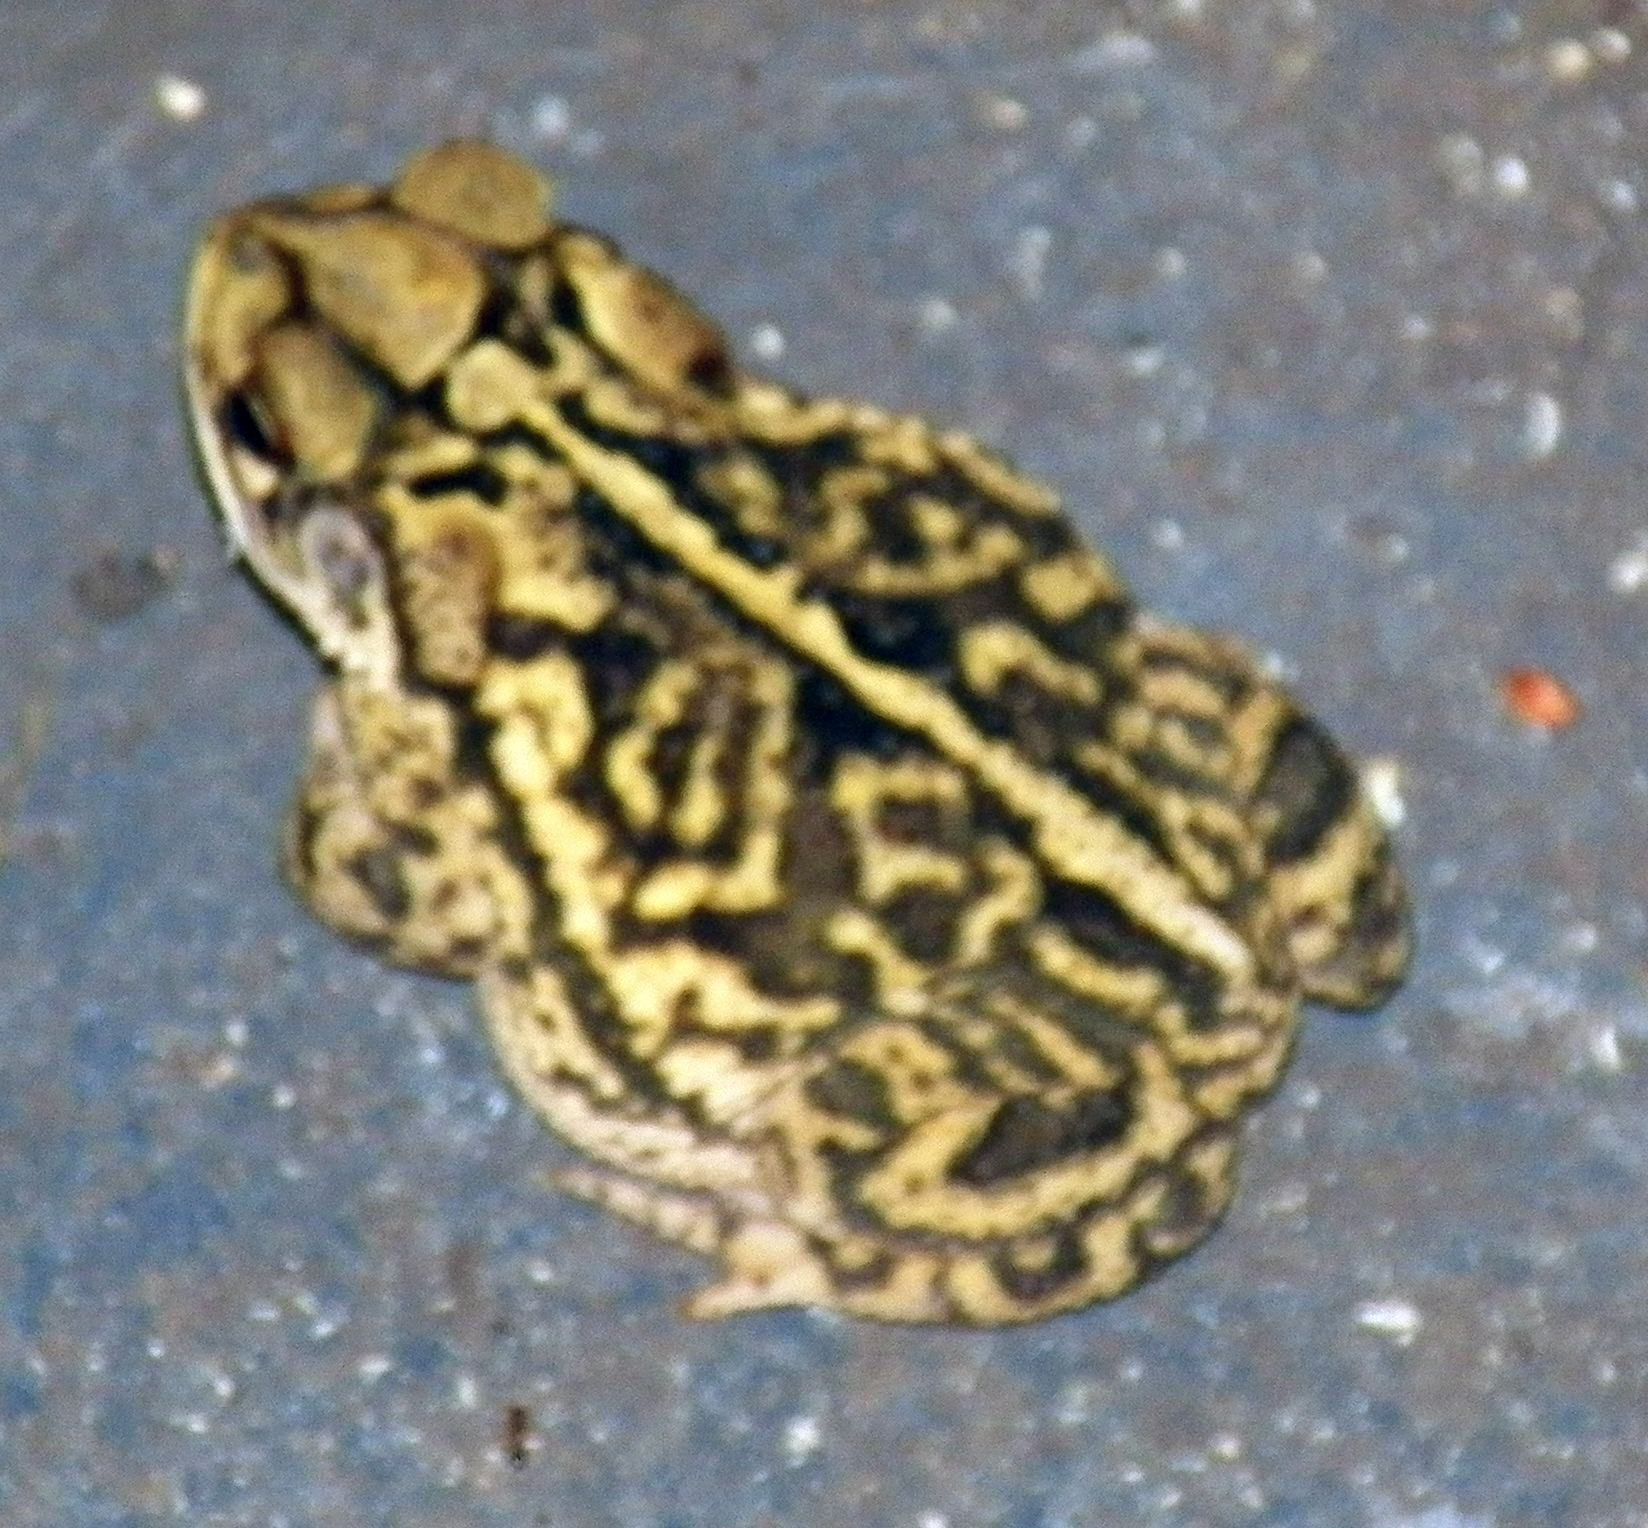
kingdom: Animalia
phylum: Chordata
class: Amphibia
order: Anura
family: Bufonidae
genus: Incilius
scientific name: Incilius nebulifer
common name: Gulf coast toad
